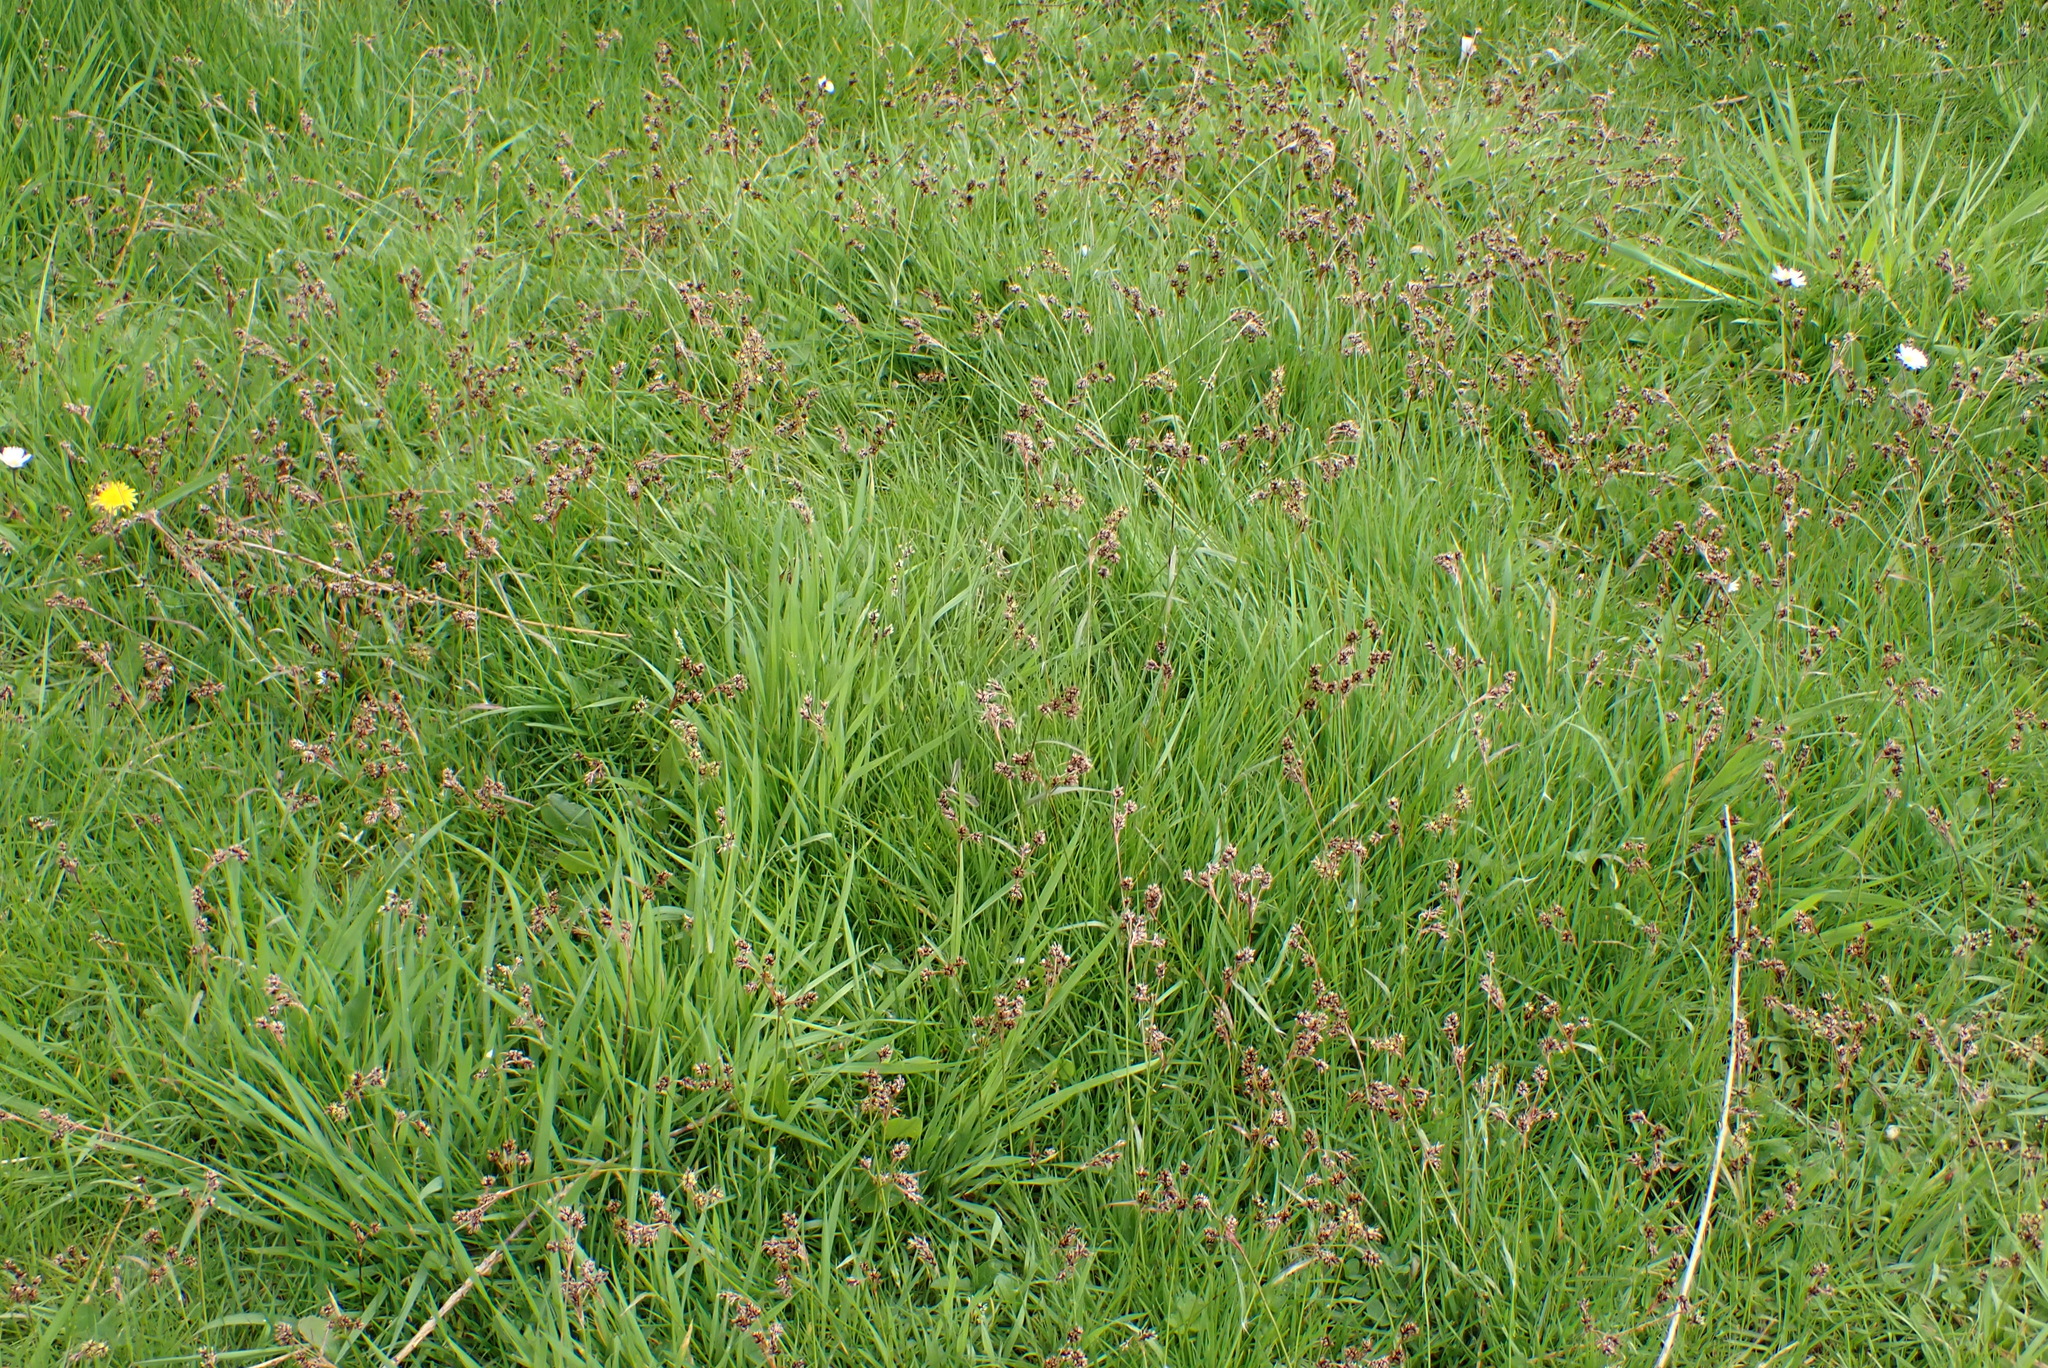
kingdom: Plantae
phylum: Tracheophyta
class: Liliopsida
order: Poales
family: Juncaceae
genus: Luzula
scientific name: Luzula campestris
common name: Field wood-rush
